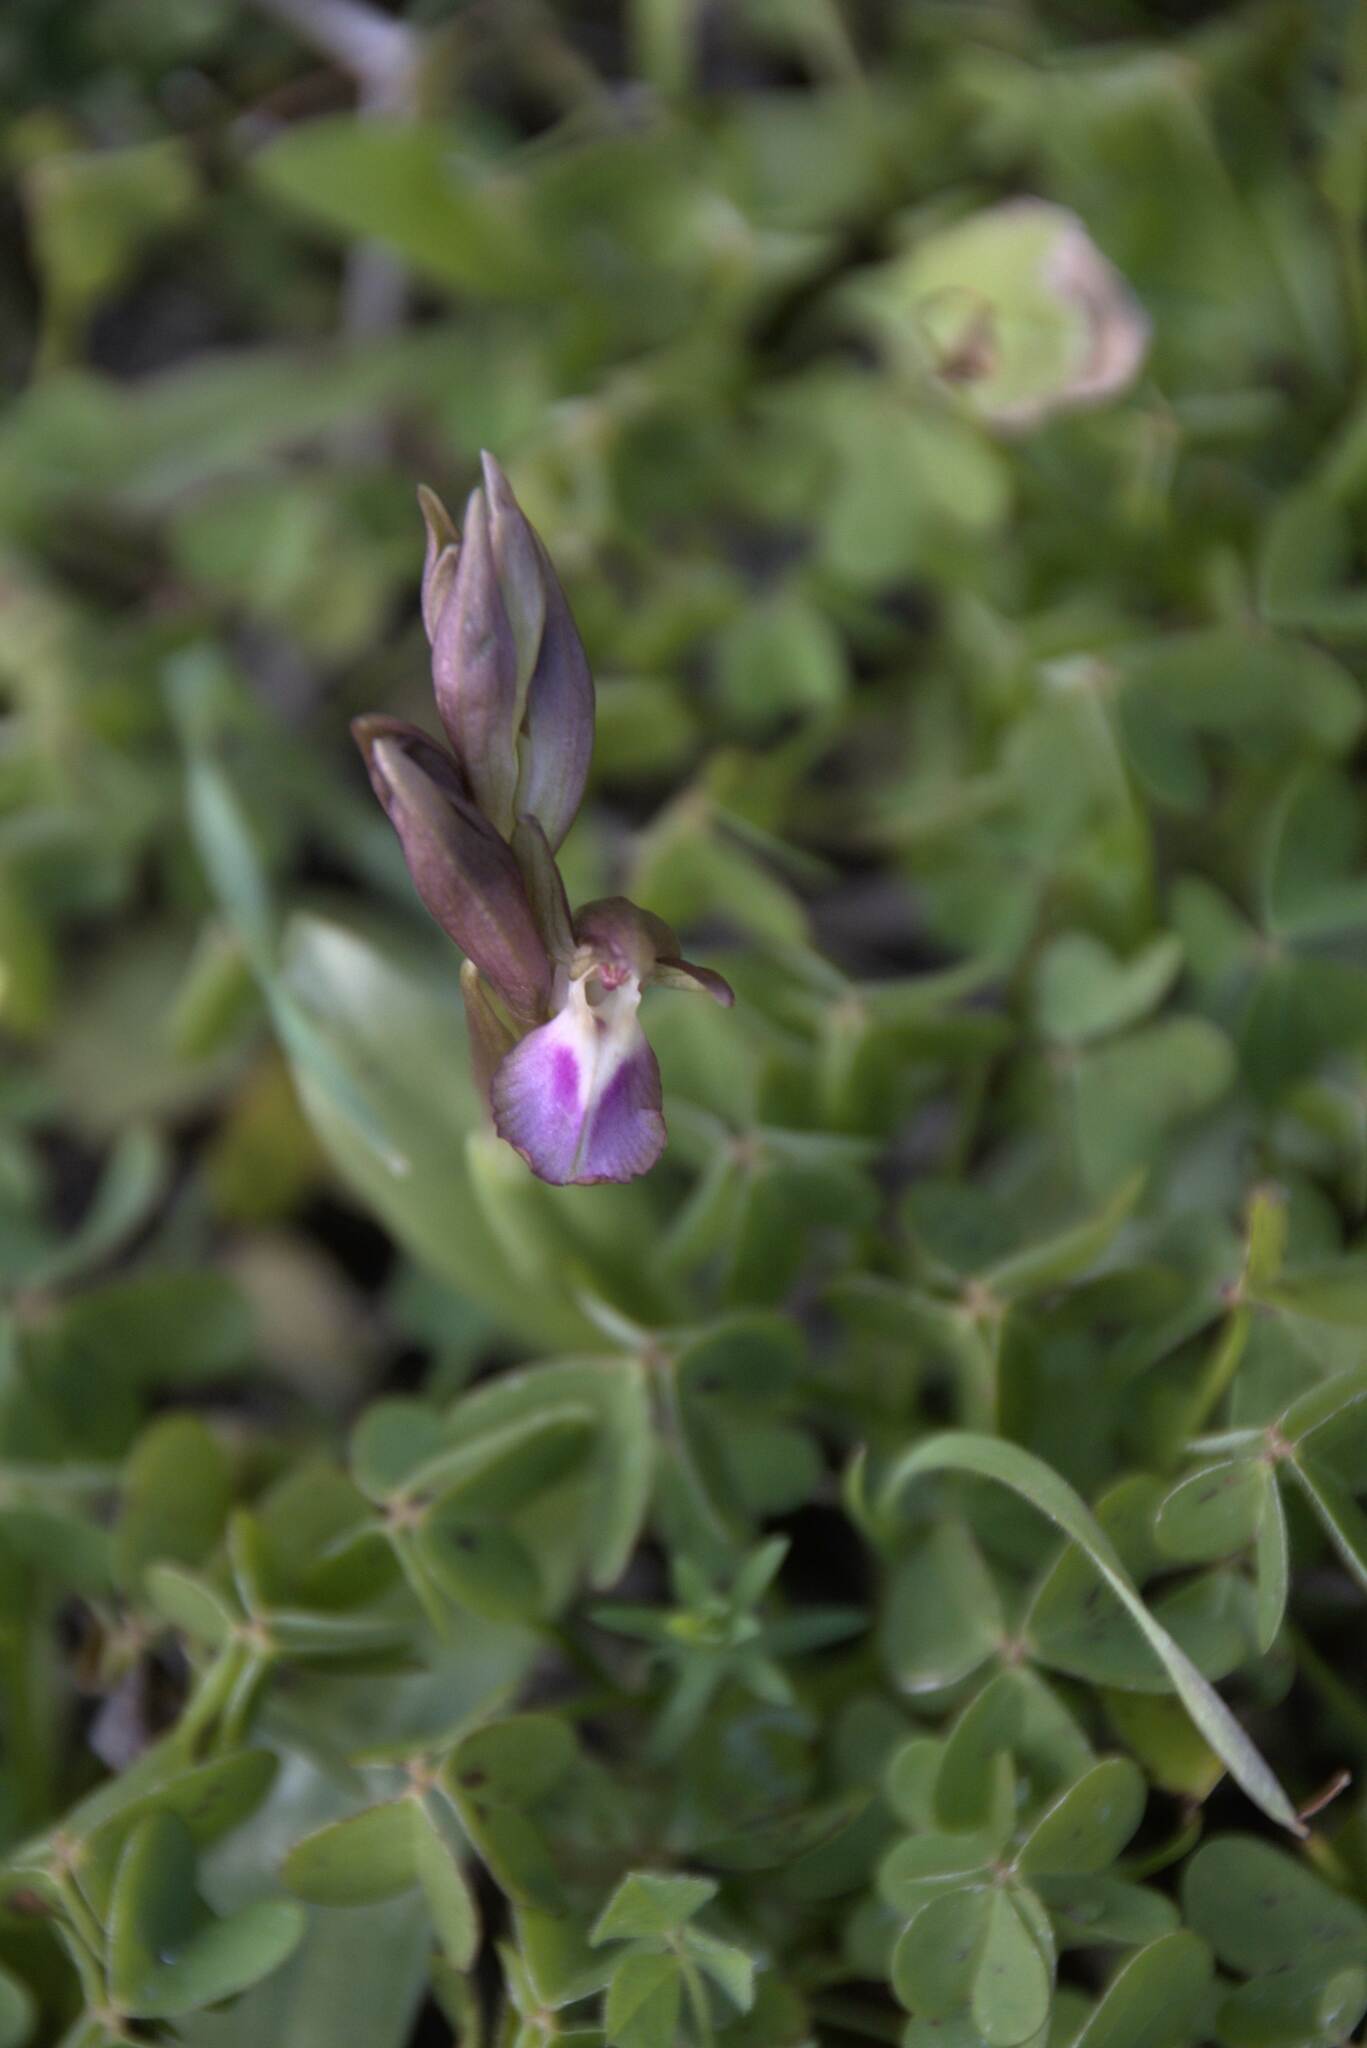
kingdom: Plantae
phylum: Tracheophyta
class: Liliopsida
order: Asparagales
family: Orchidaceae
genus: Anacamptis
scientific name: Anacamptis collina
